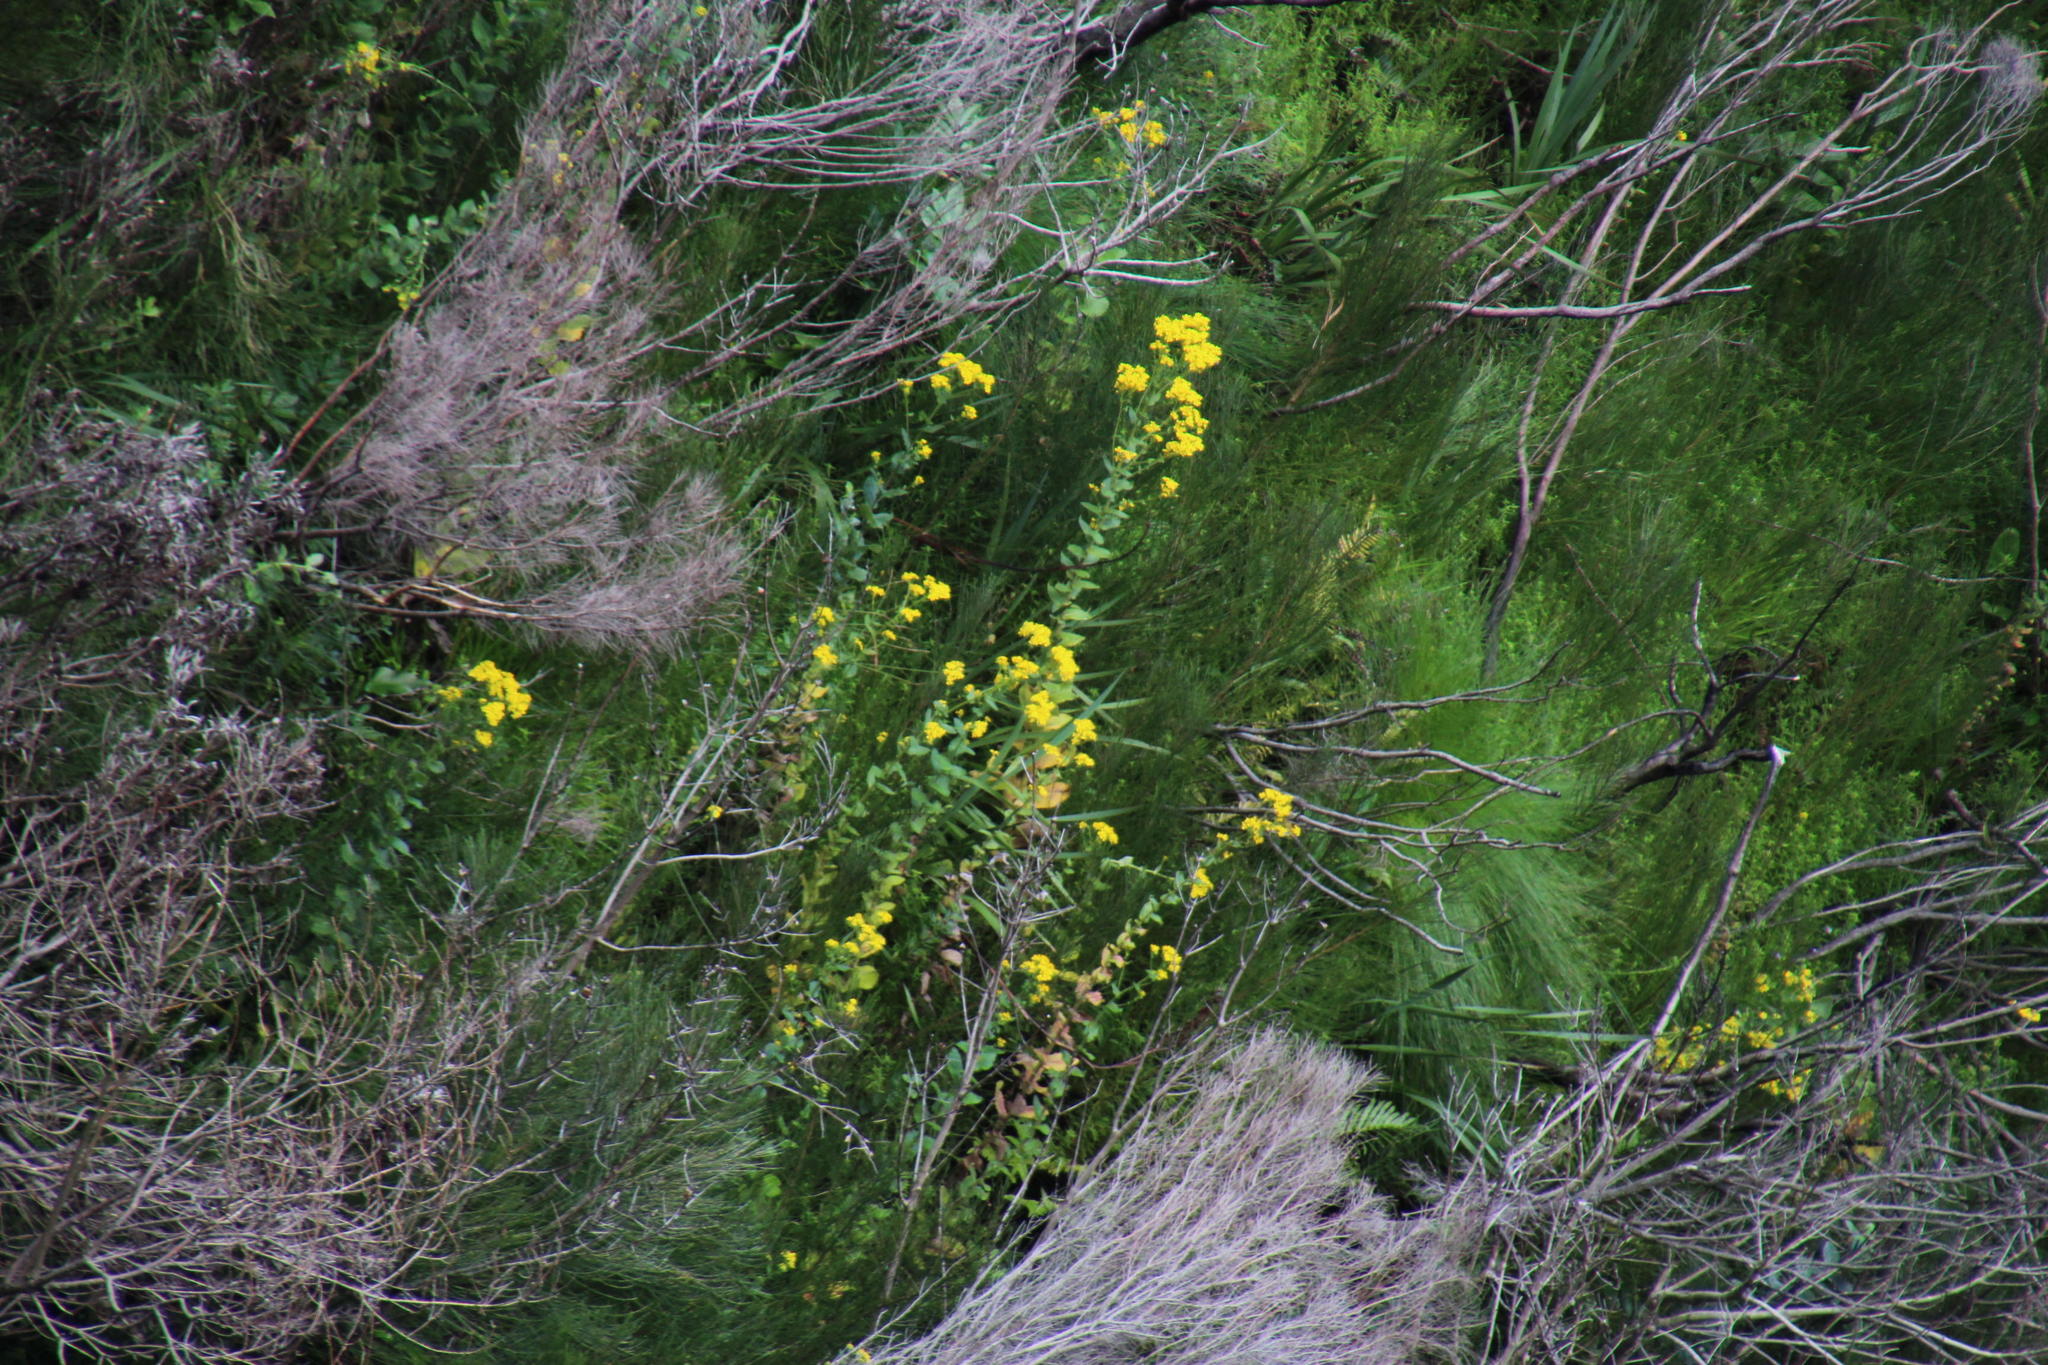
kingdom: Plantae
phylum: Tracheophyta
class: Magnoliopsida
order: Asterales
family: Asteraceae
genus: Helichrysum
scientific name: Helichrysum foetidum
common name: Stinking everlasting
